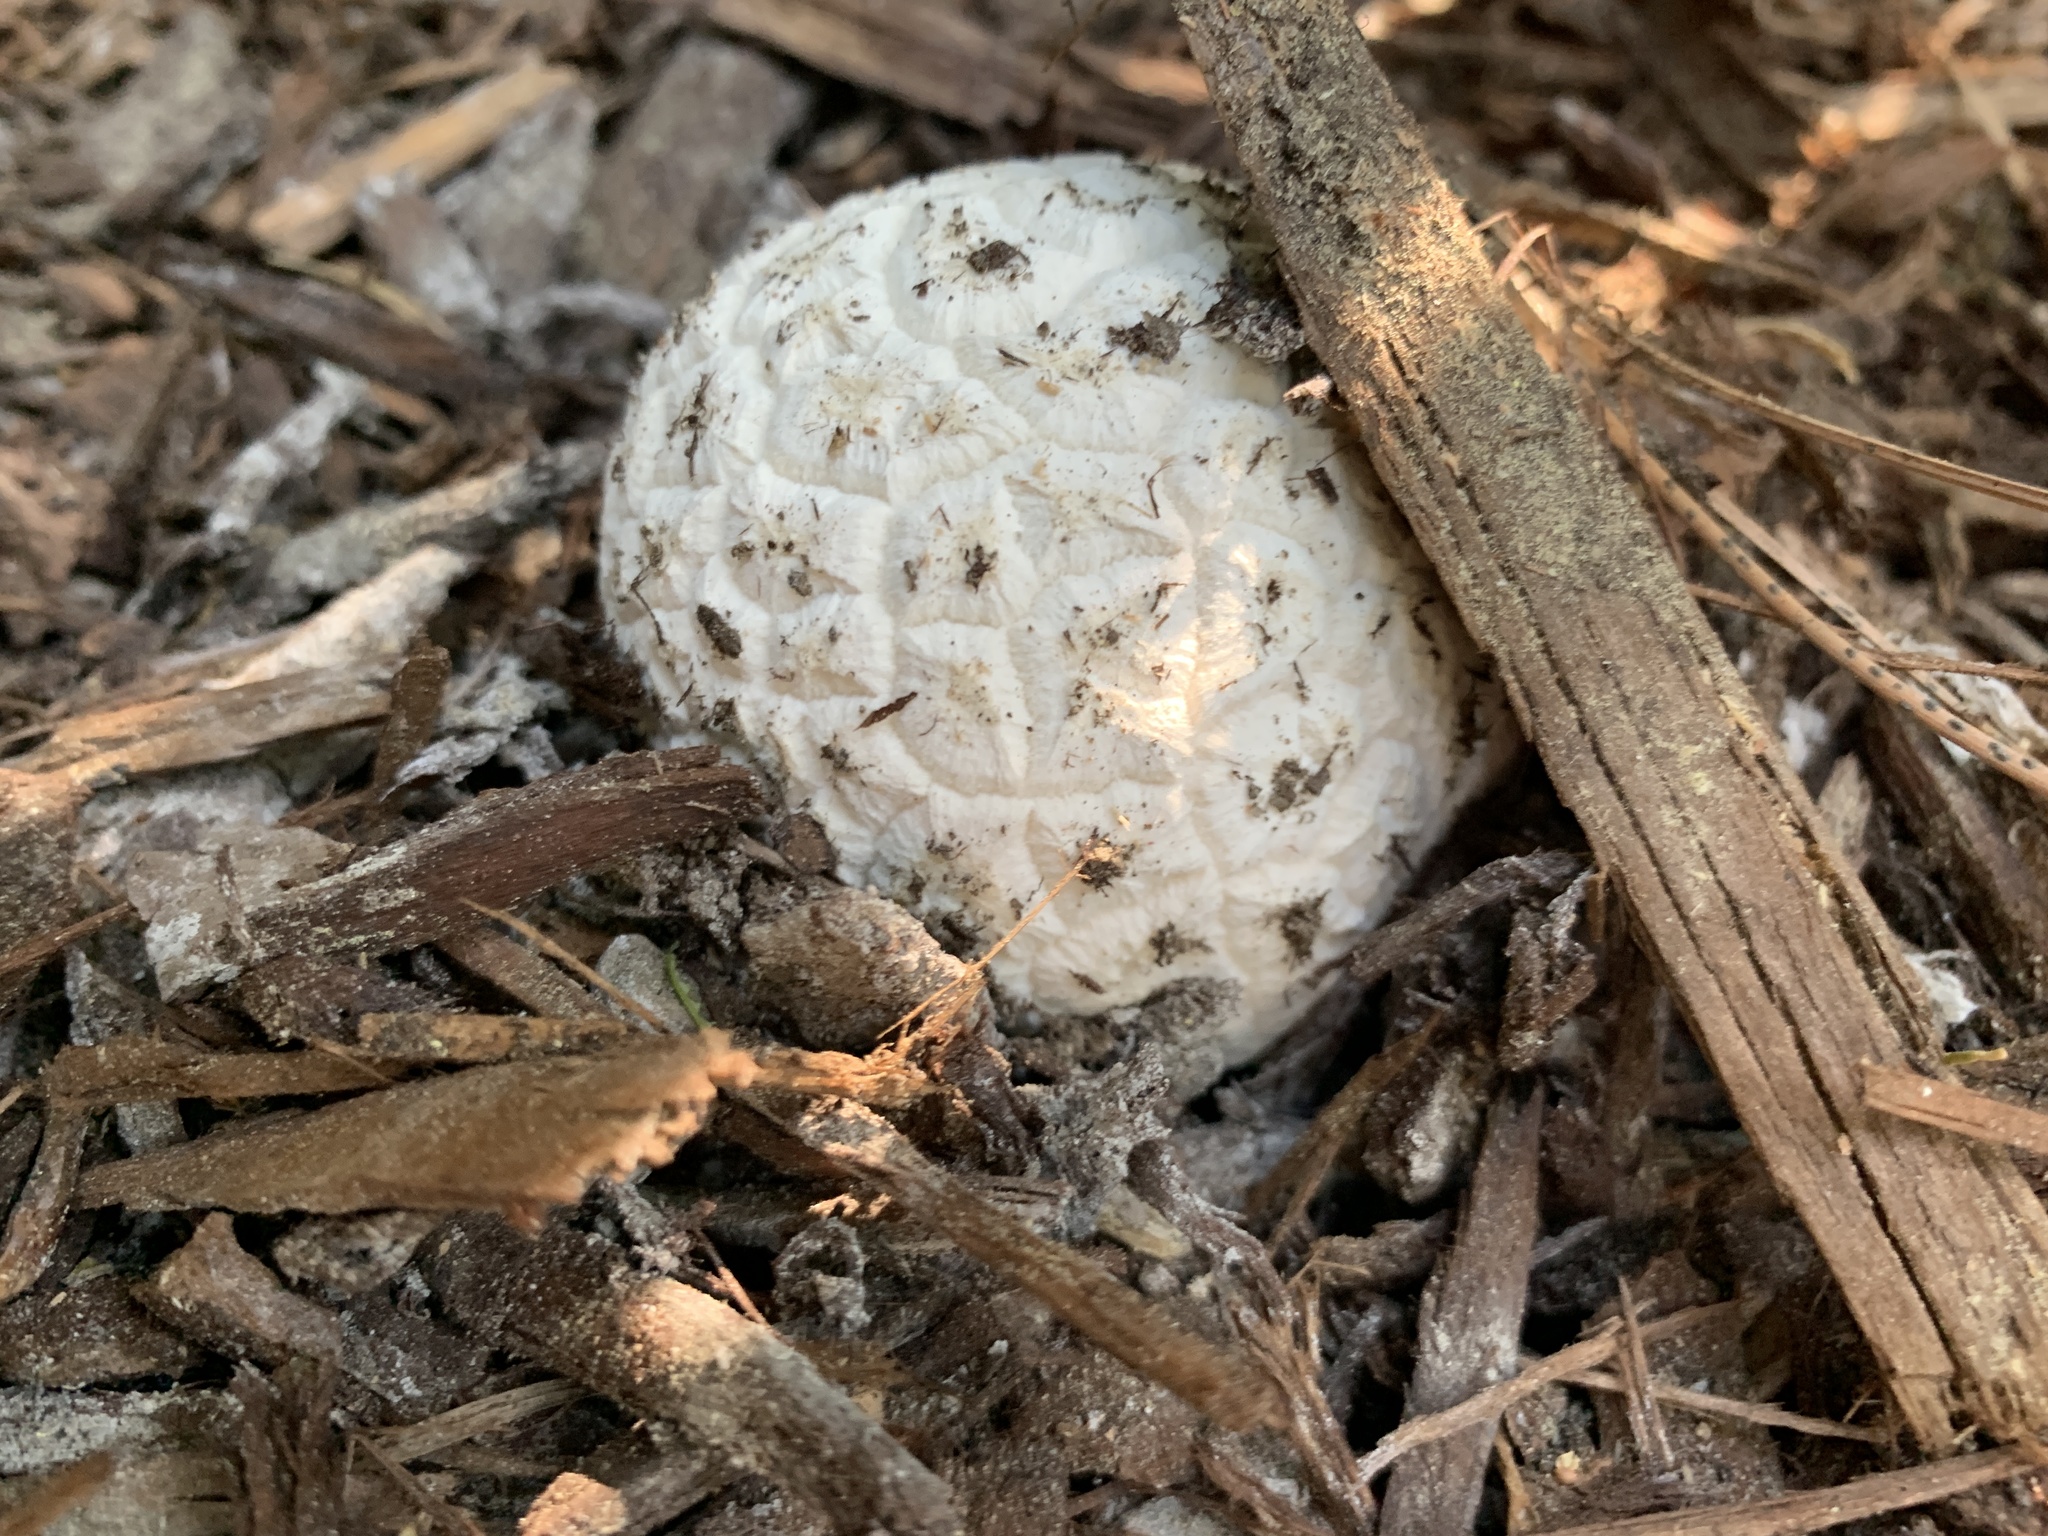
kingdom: Fungi
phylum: Basidiomycota
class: Agaricomycetes
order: Agaricales
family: Lycoperdaceae
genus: Calbovista
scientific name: Calbovista subsculpta
